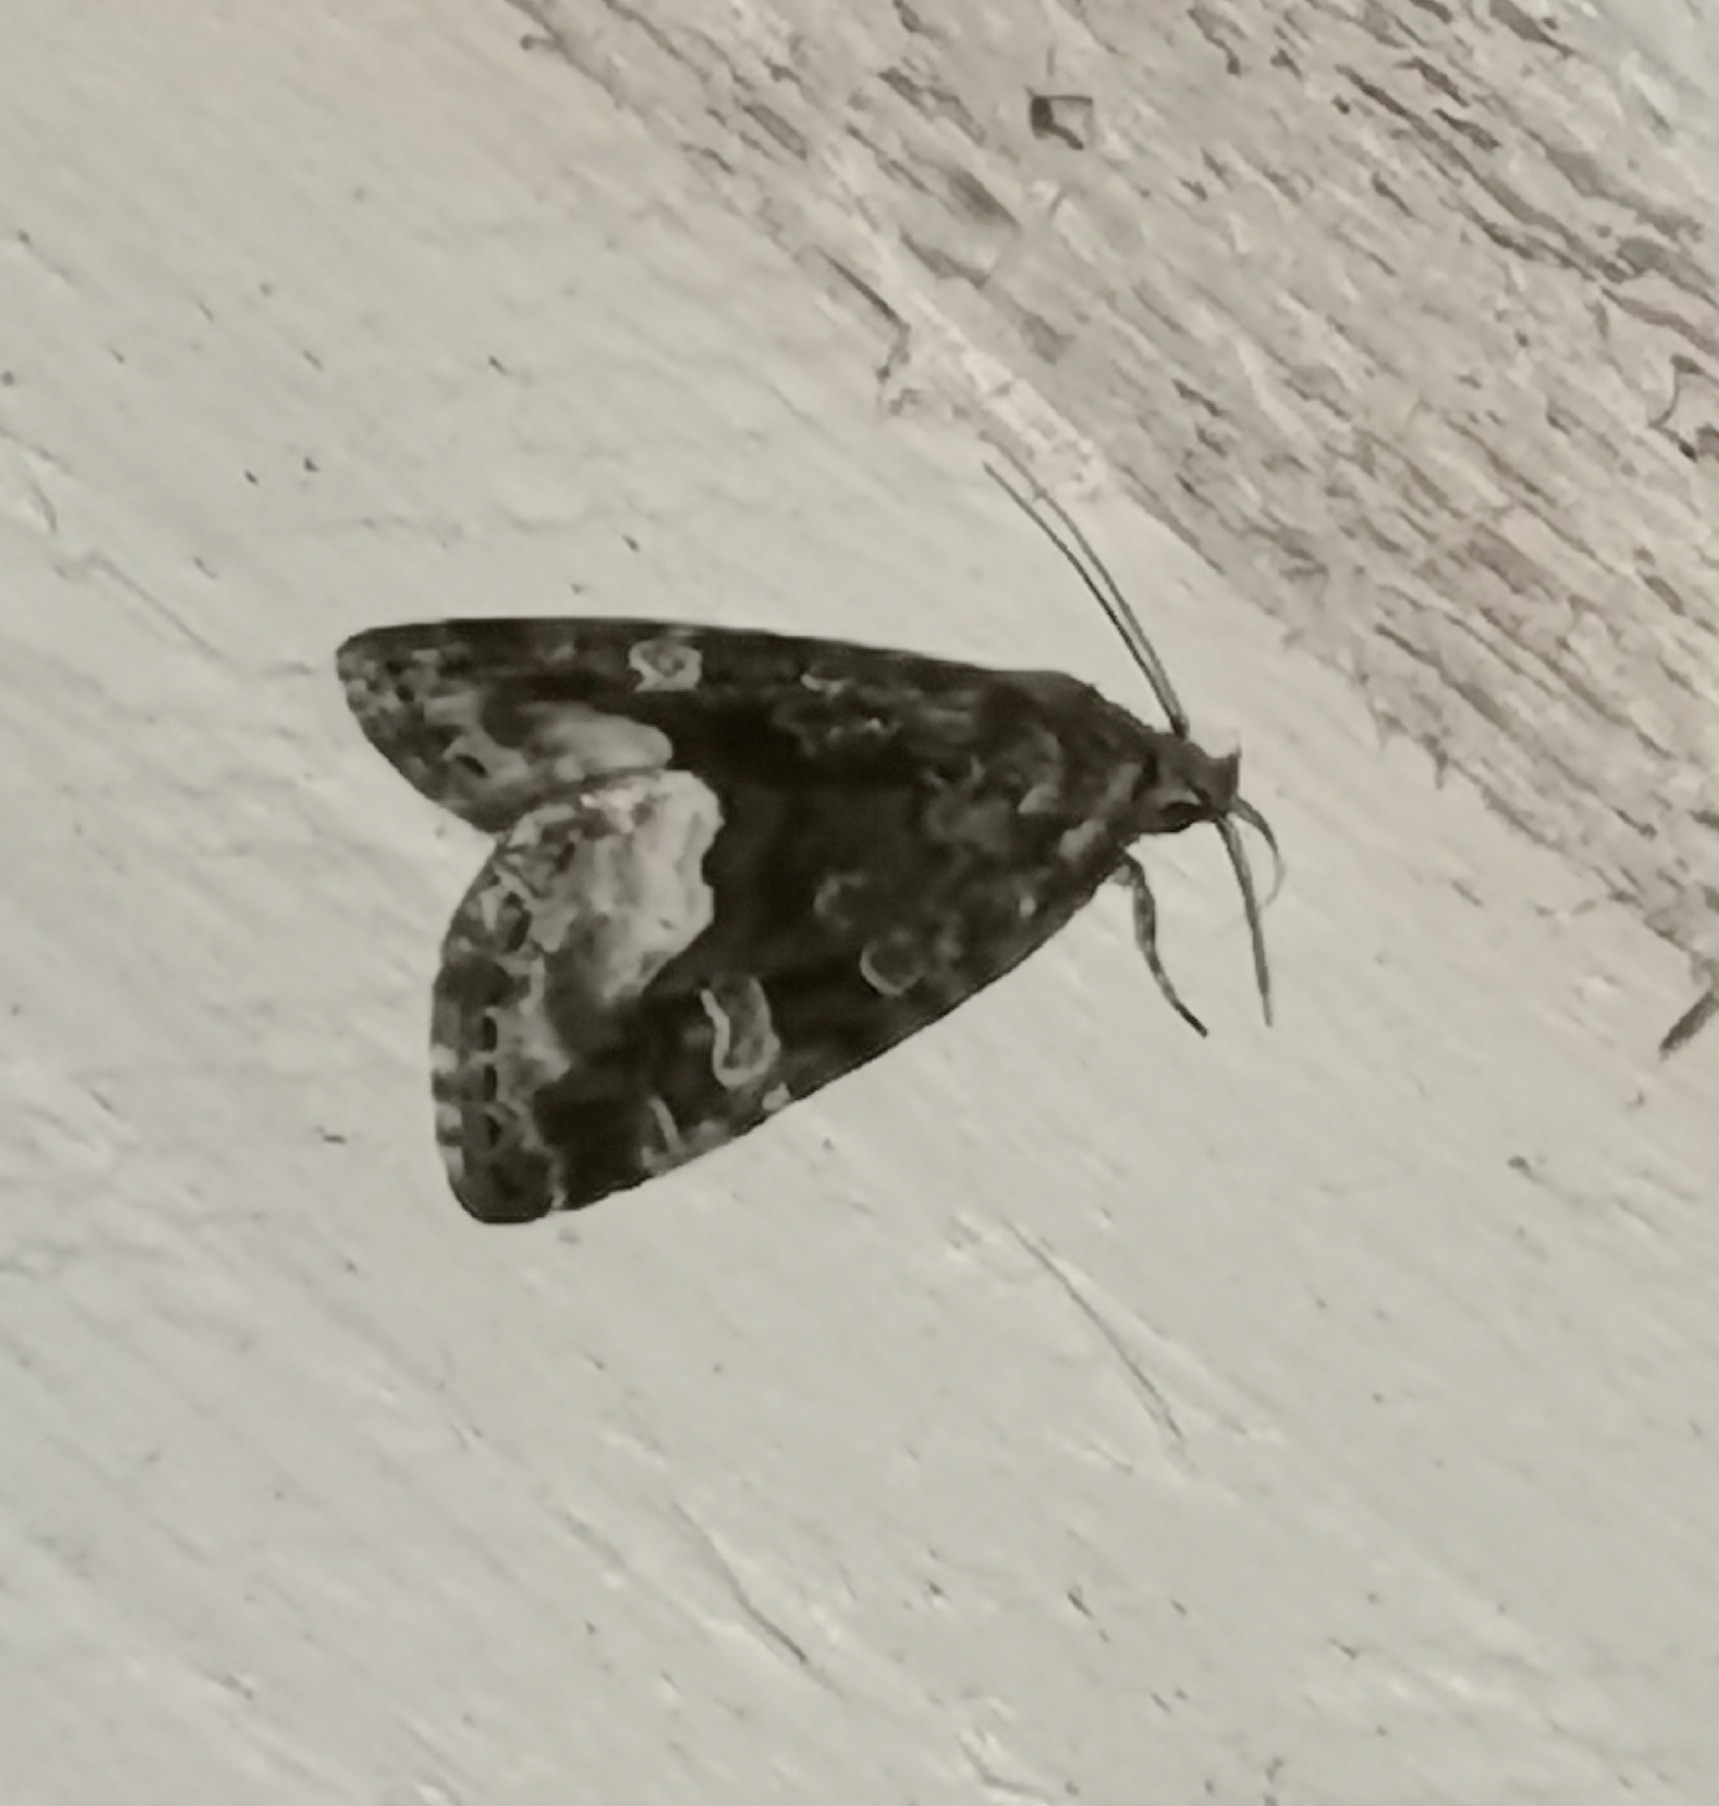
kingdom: Animalia
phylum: Arthropoda
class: Insecta
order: Lepidoptera
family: Noctuidae
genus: Deltote
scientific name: Deltote pygarga
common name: Marbled white spot
